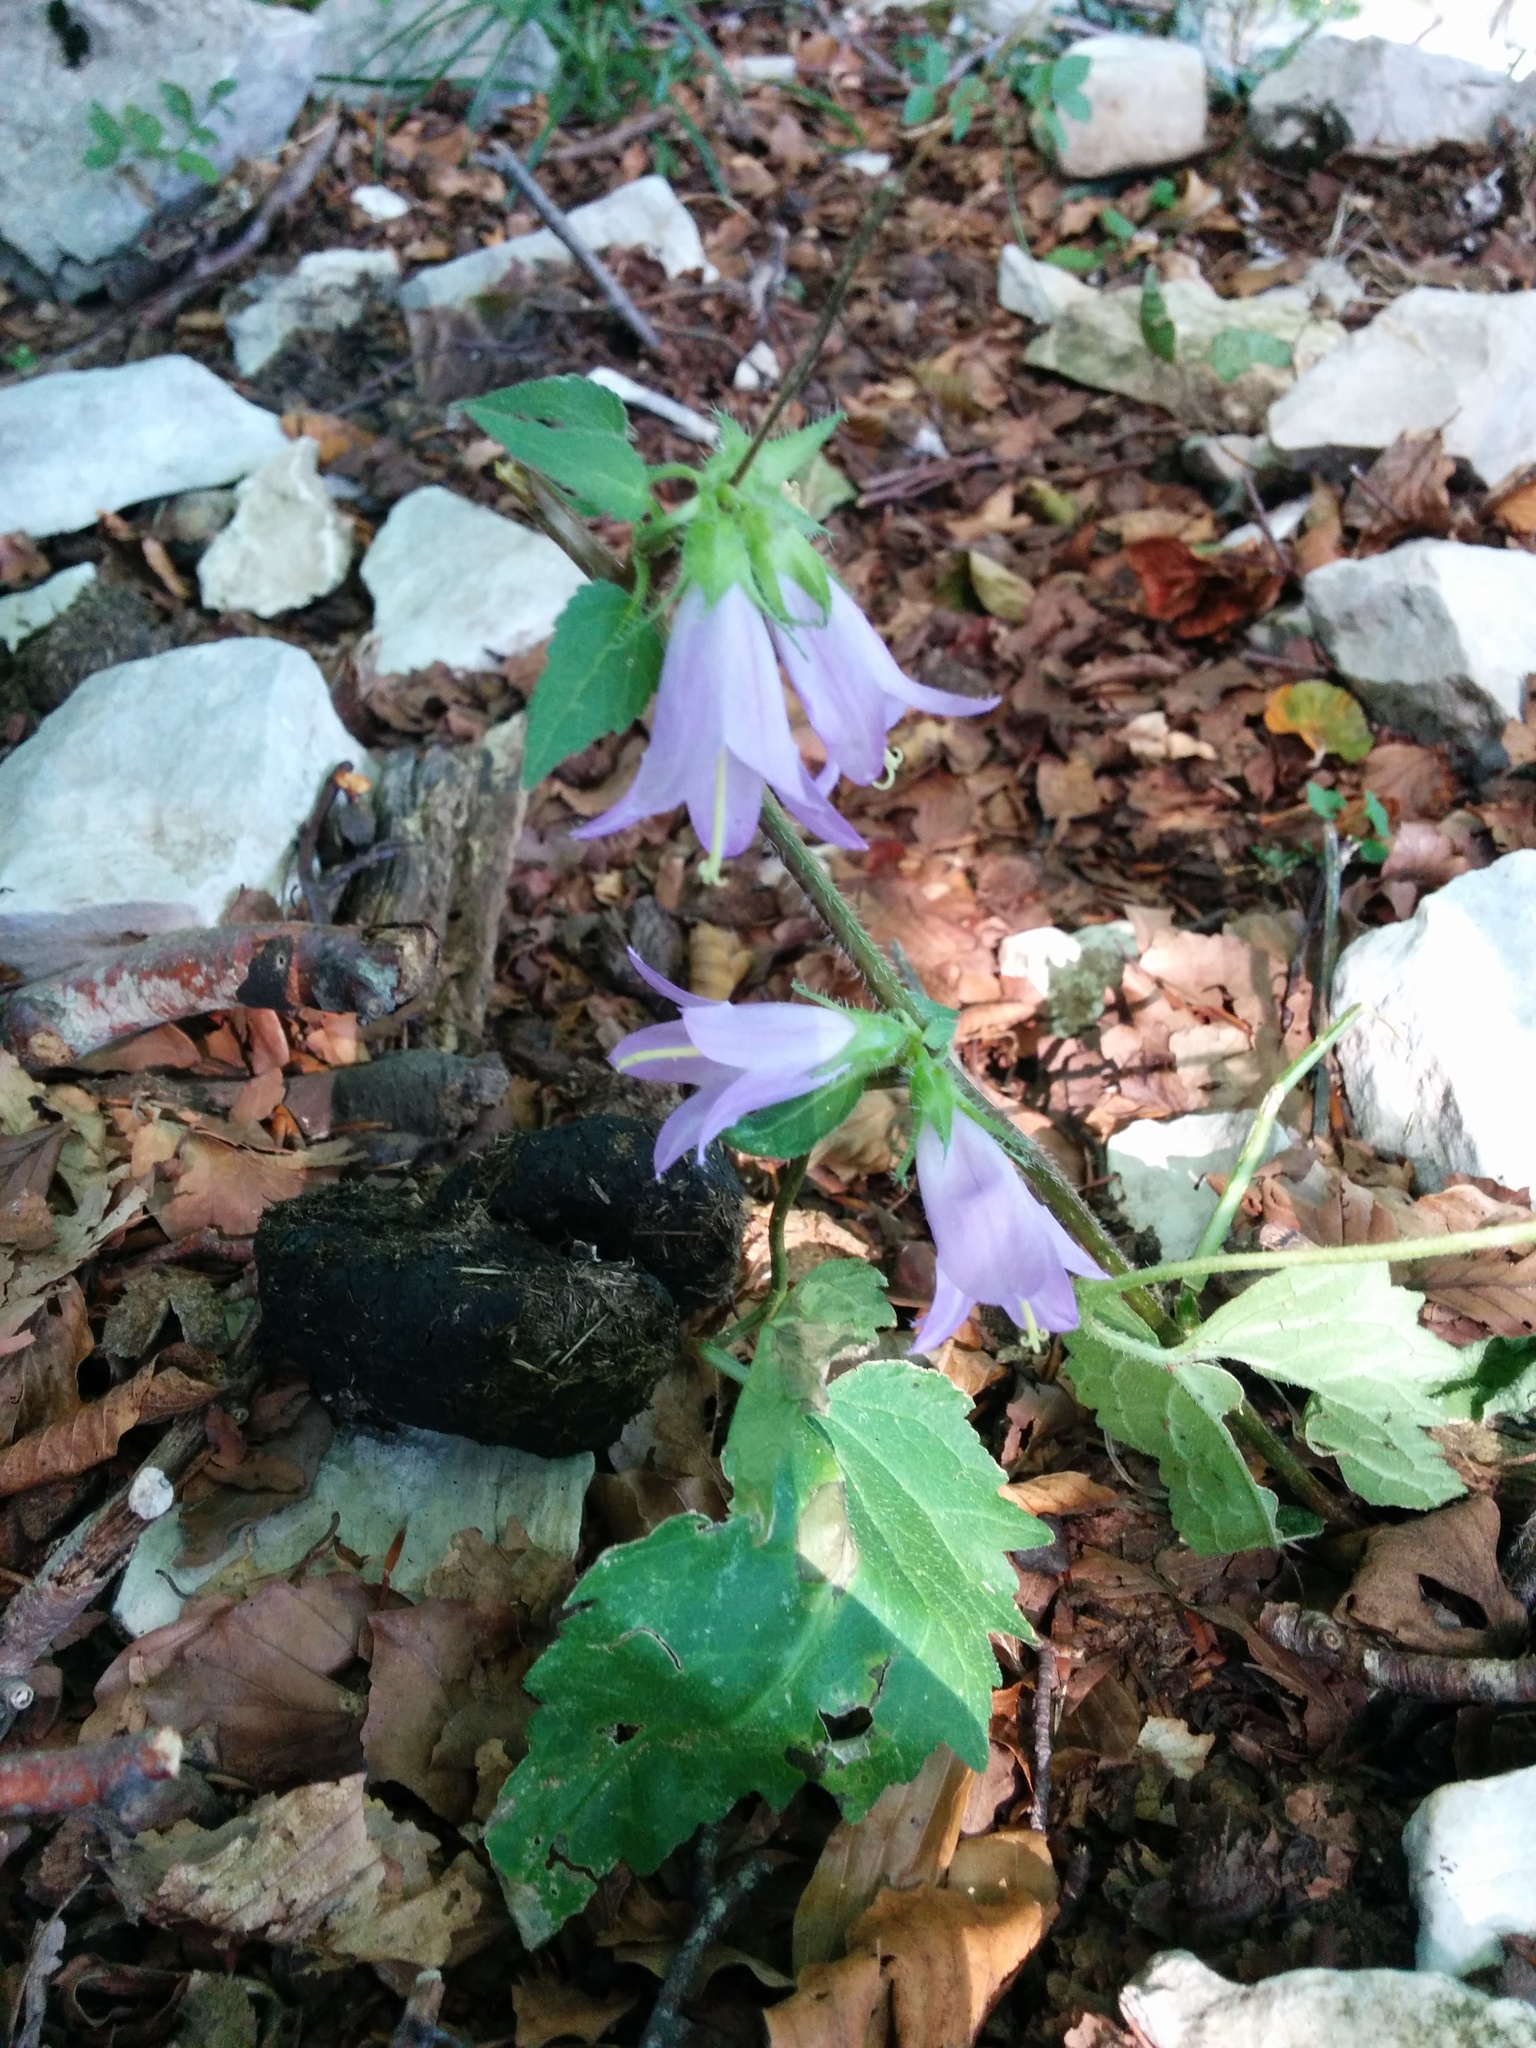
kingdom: Plantae
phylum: Tracheophyta
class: Magnoliopsida
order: Asterales
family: Campanulaceae
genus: Campanula
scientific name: Campanula trachelium
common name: Nettle-leaved bellflower
